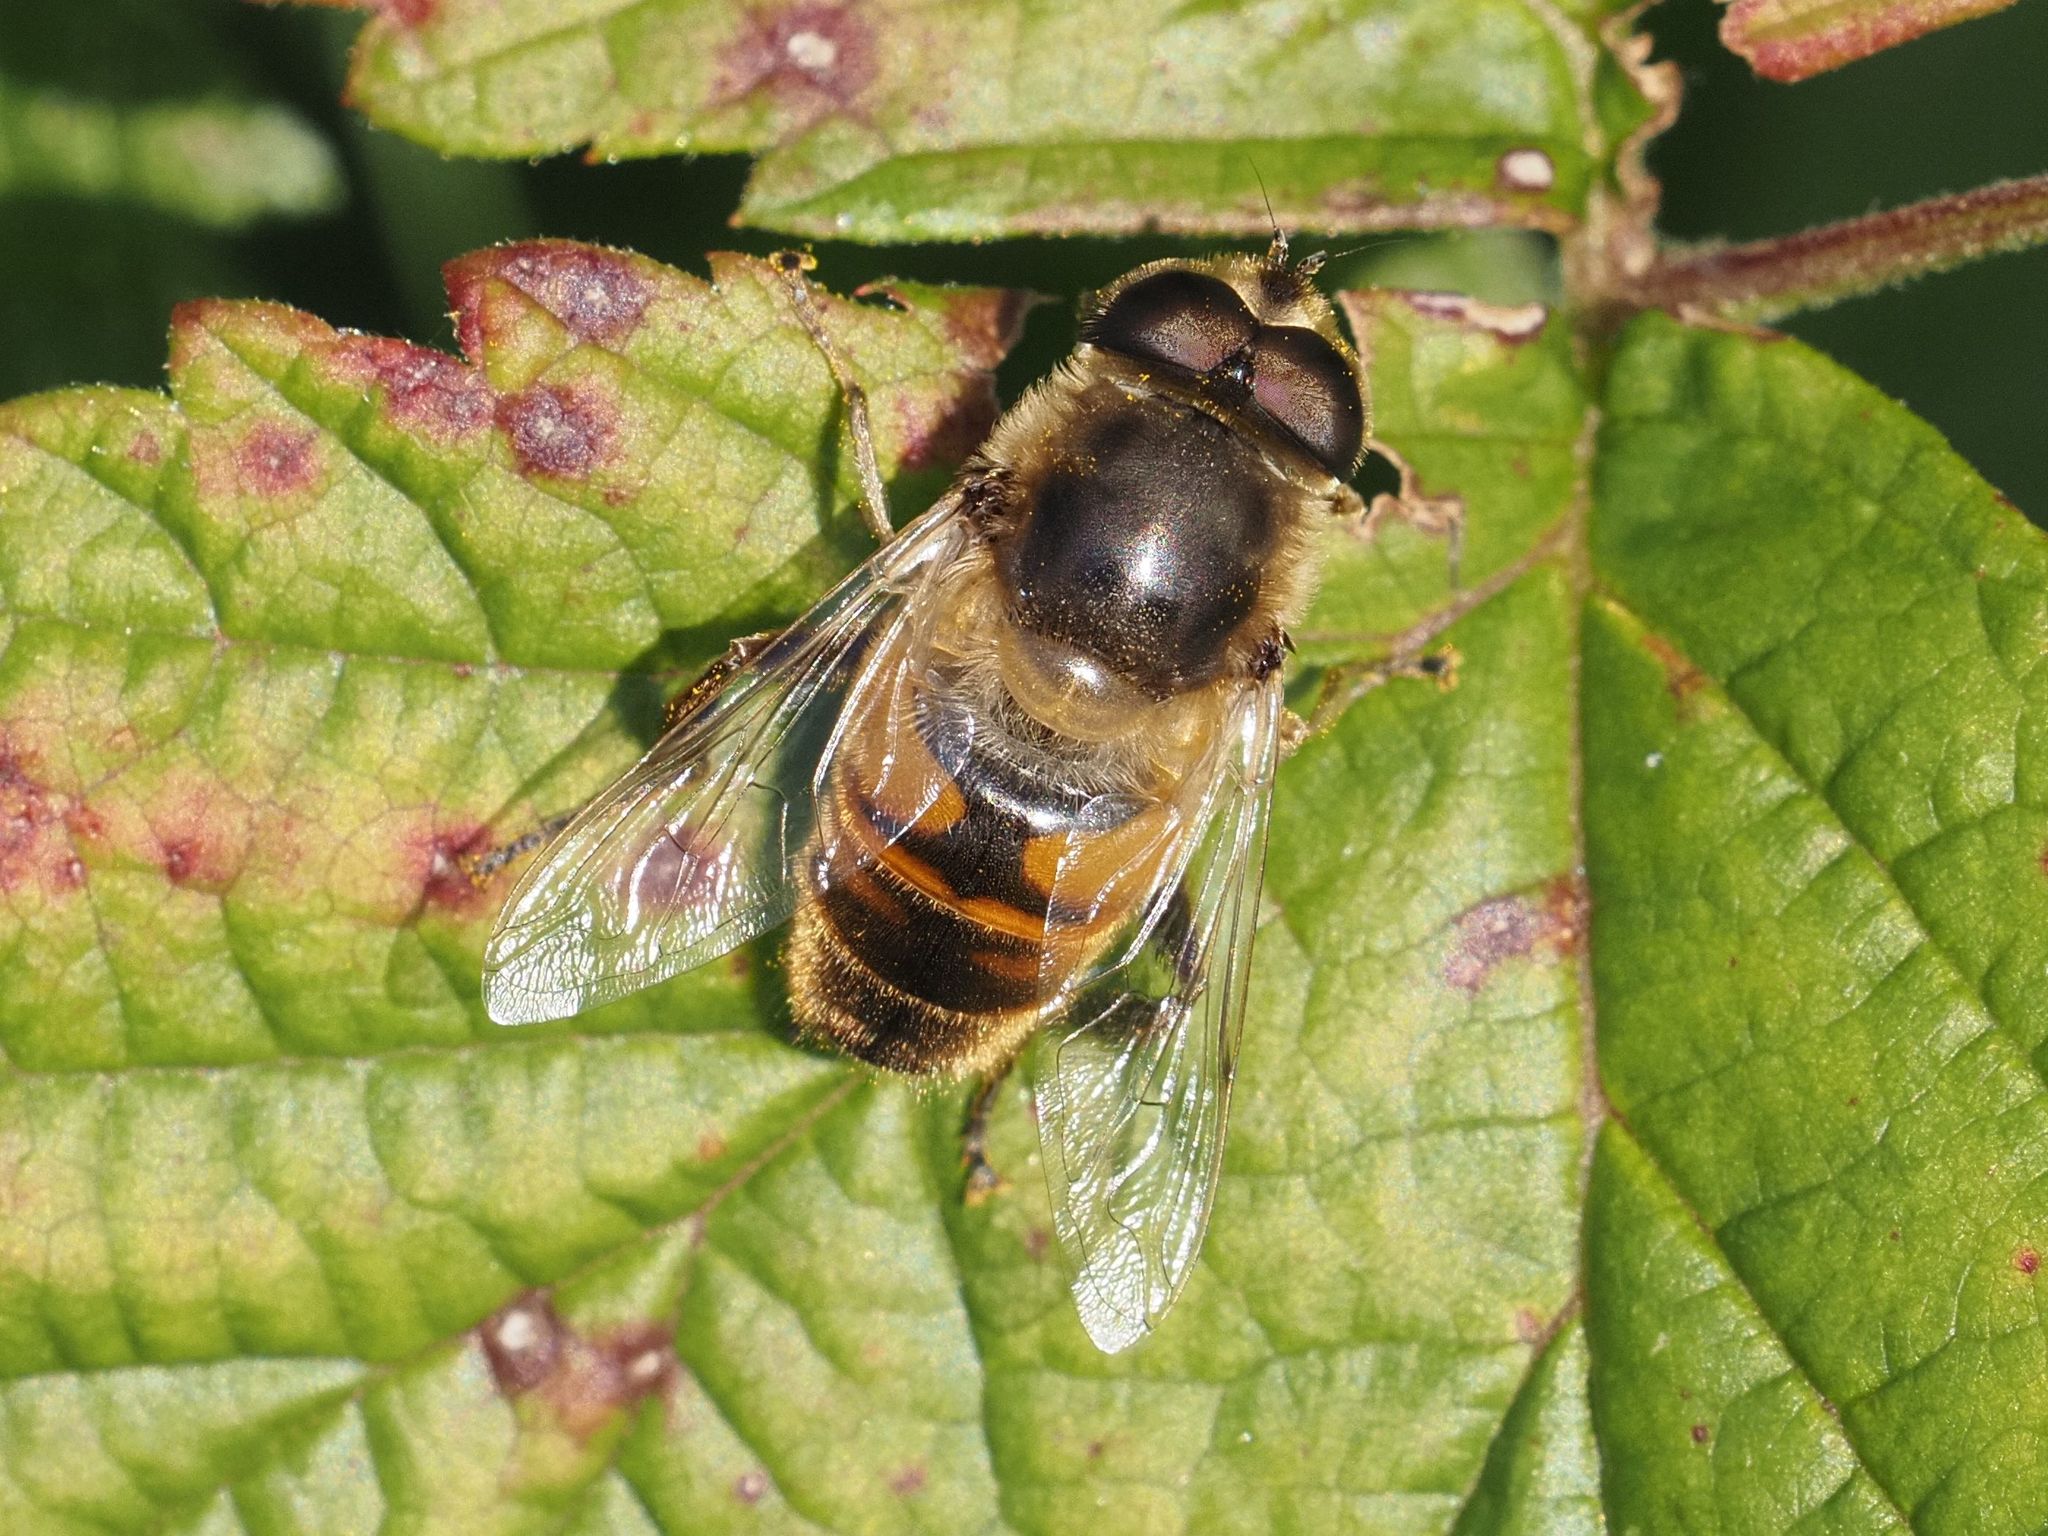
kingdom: Animalia
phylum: Arthropoda
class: Insecta
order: Diptera
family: Syrphidae
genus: Eristalis
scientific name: Eristalis tenax
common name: Drone fly
